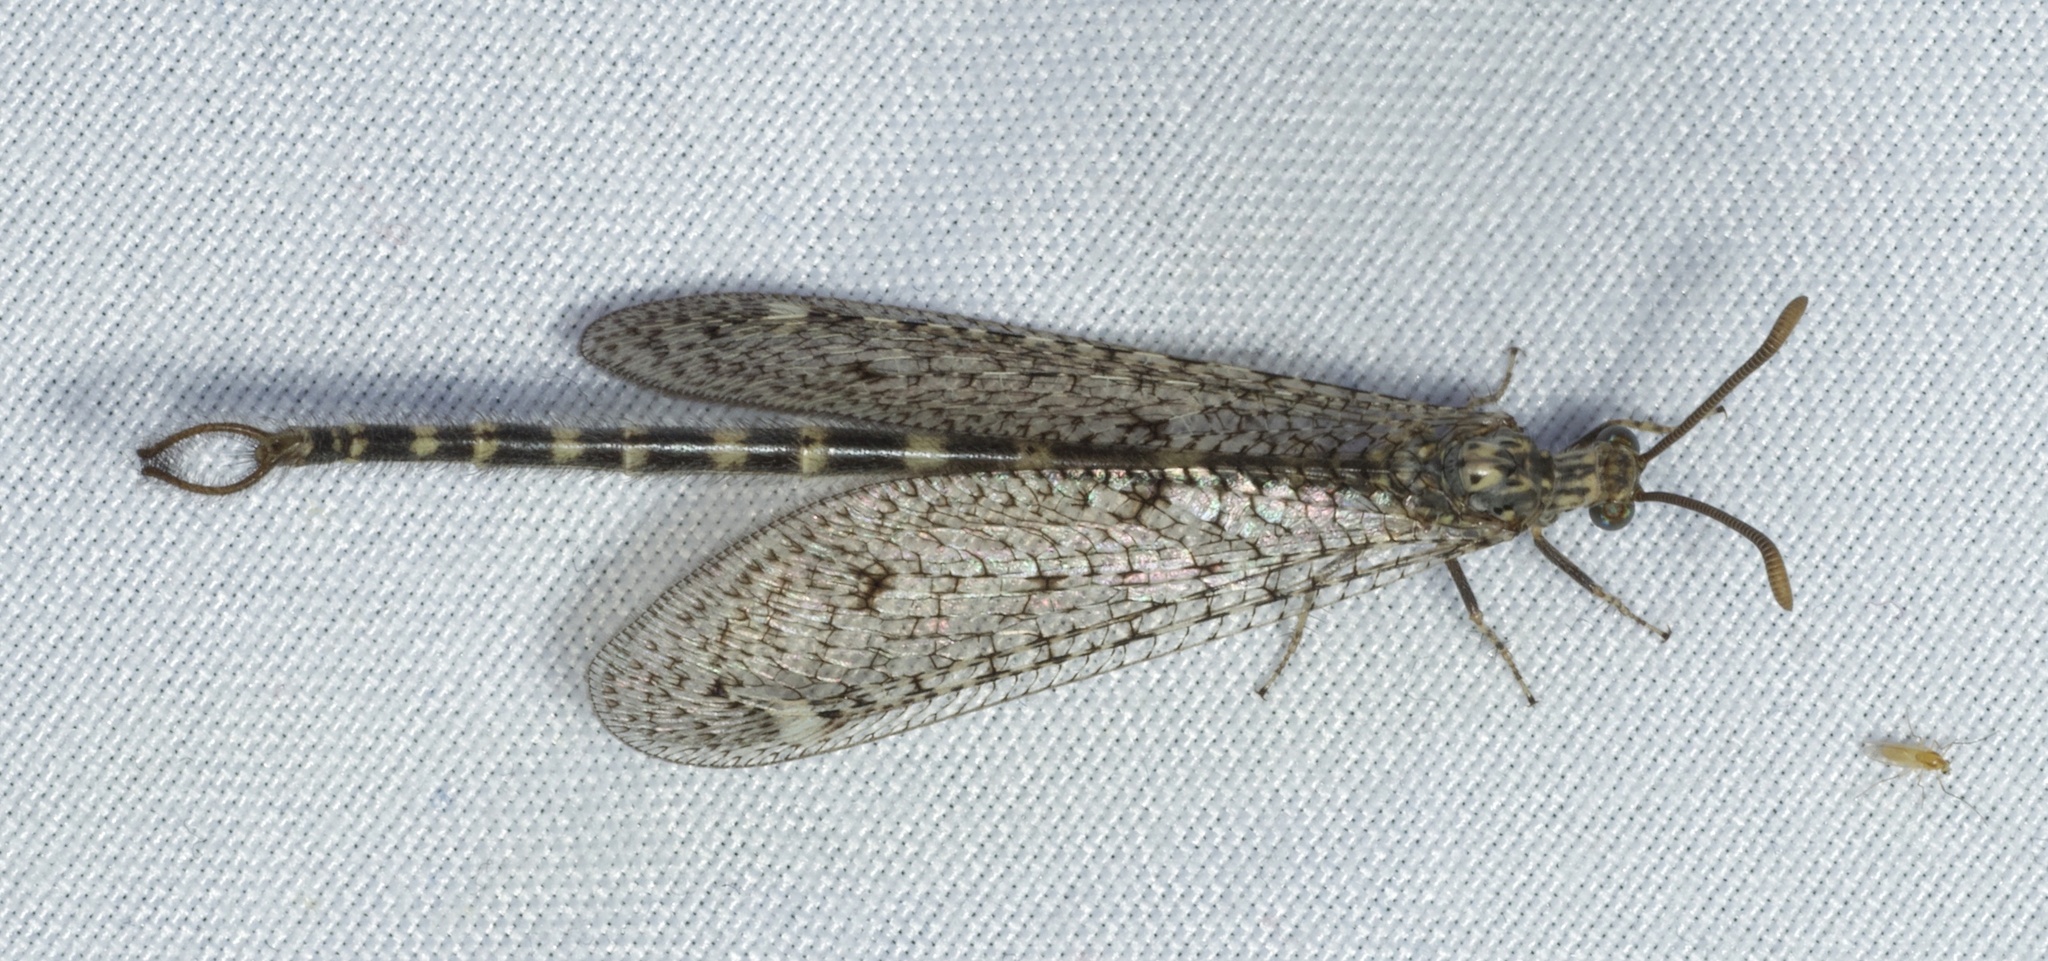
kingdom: Animalia
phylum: Arthropoda
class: Insecta
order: Neuroptera
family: Myrmeleontidae
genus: Brachynemurus
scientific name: Brachynemurus sackeni
